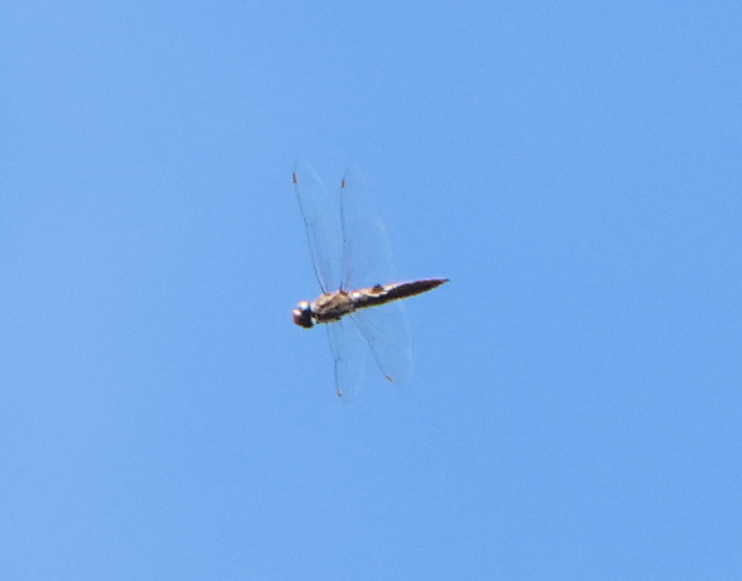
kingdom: Animalia
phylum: Arthropoda
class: Insecta
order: Odonata
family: Libellulidae
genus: Pantala
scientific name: Pantala hymenaea
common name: Spot-winged glider
